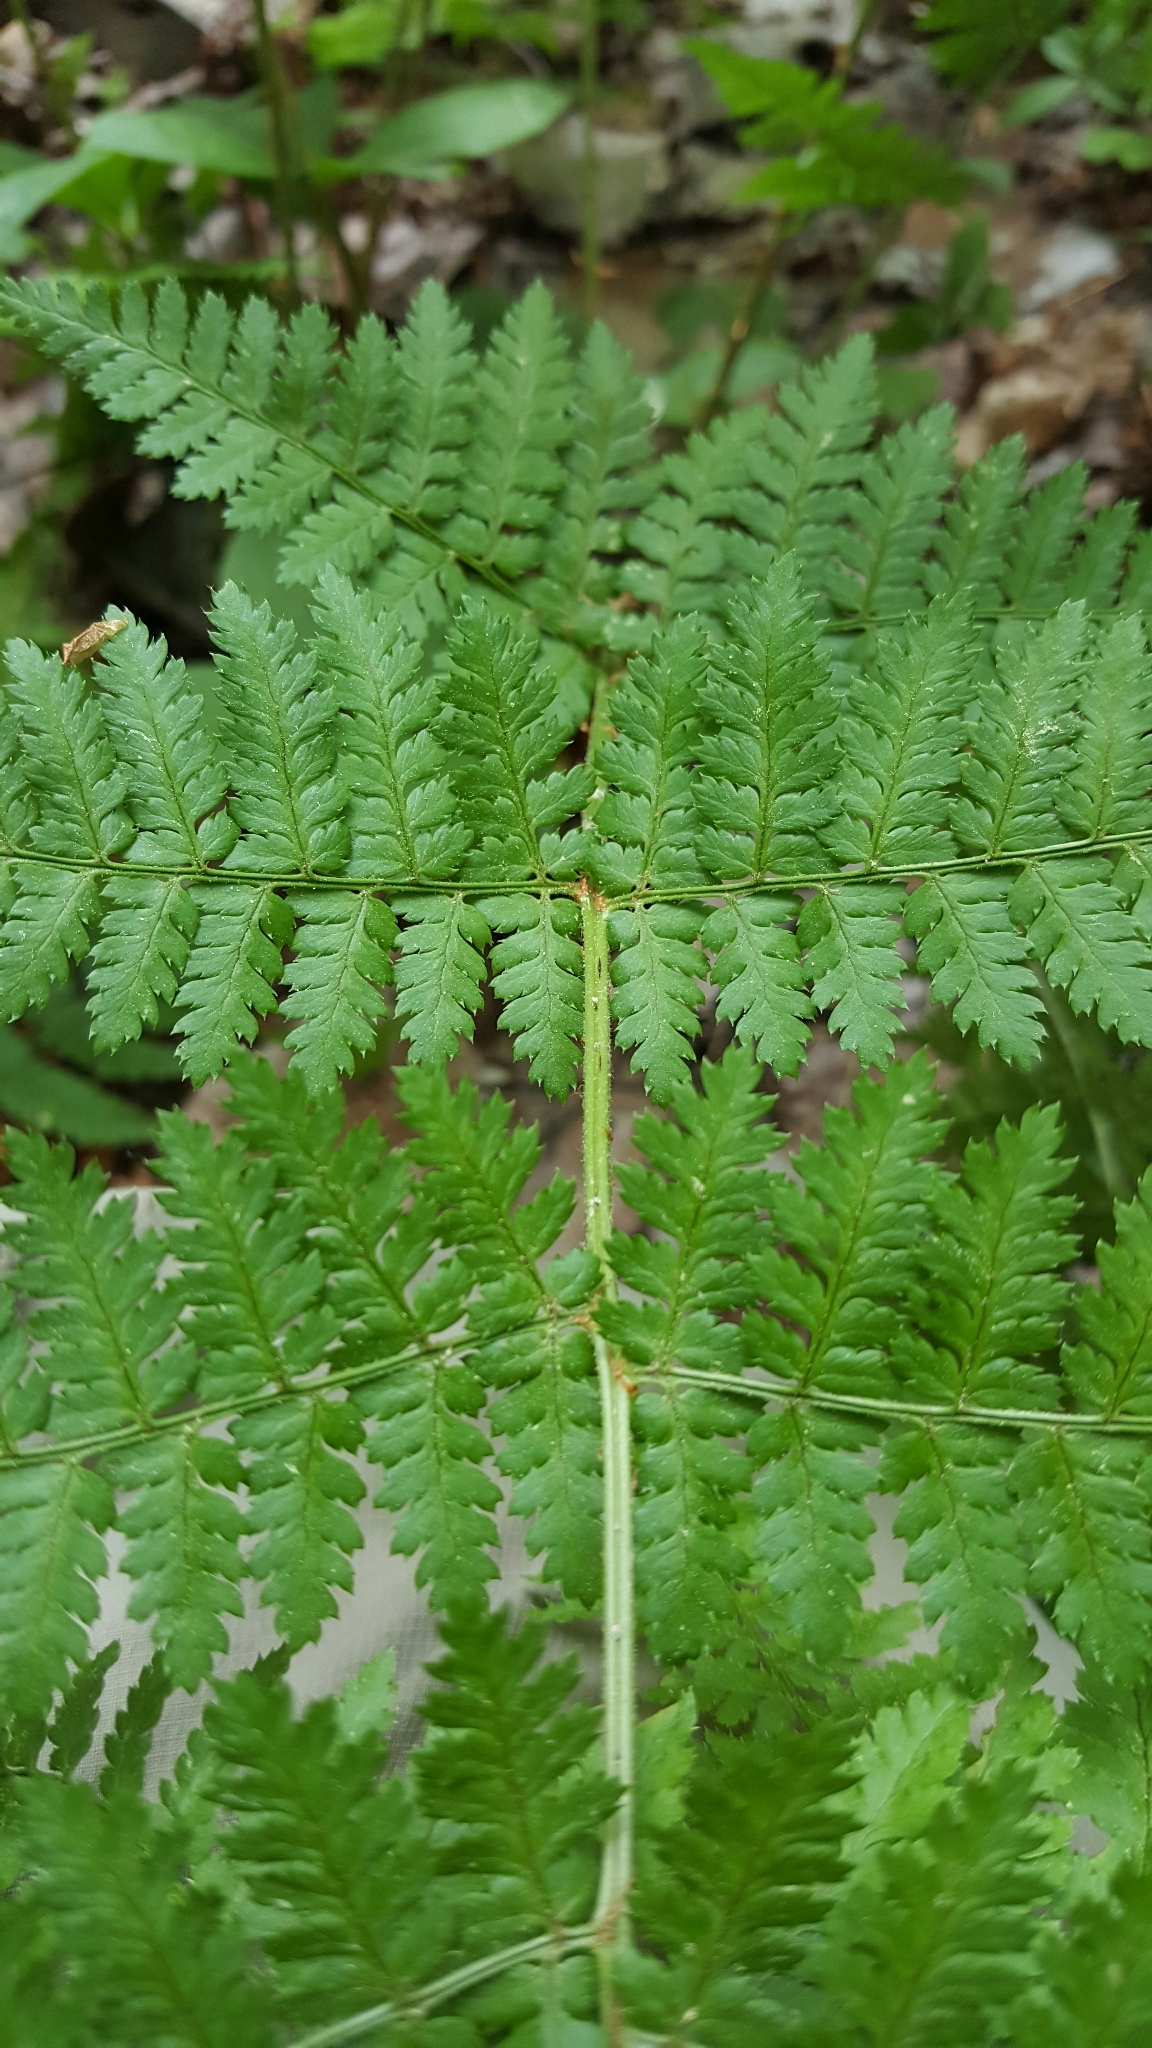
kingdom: Plantae
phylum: Tracheophyta
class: Polypodiopsida
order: Polypodiales
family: Dryopteridaceae
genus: Dryopteris
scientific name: Dryopteris intermedia
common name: Evergreen wood fern
